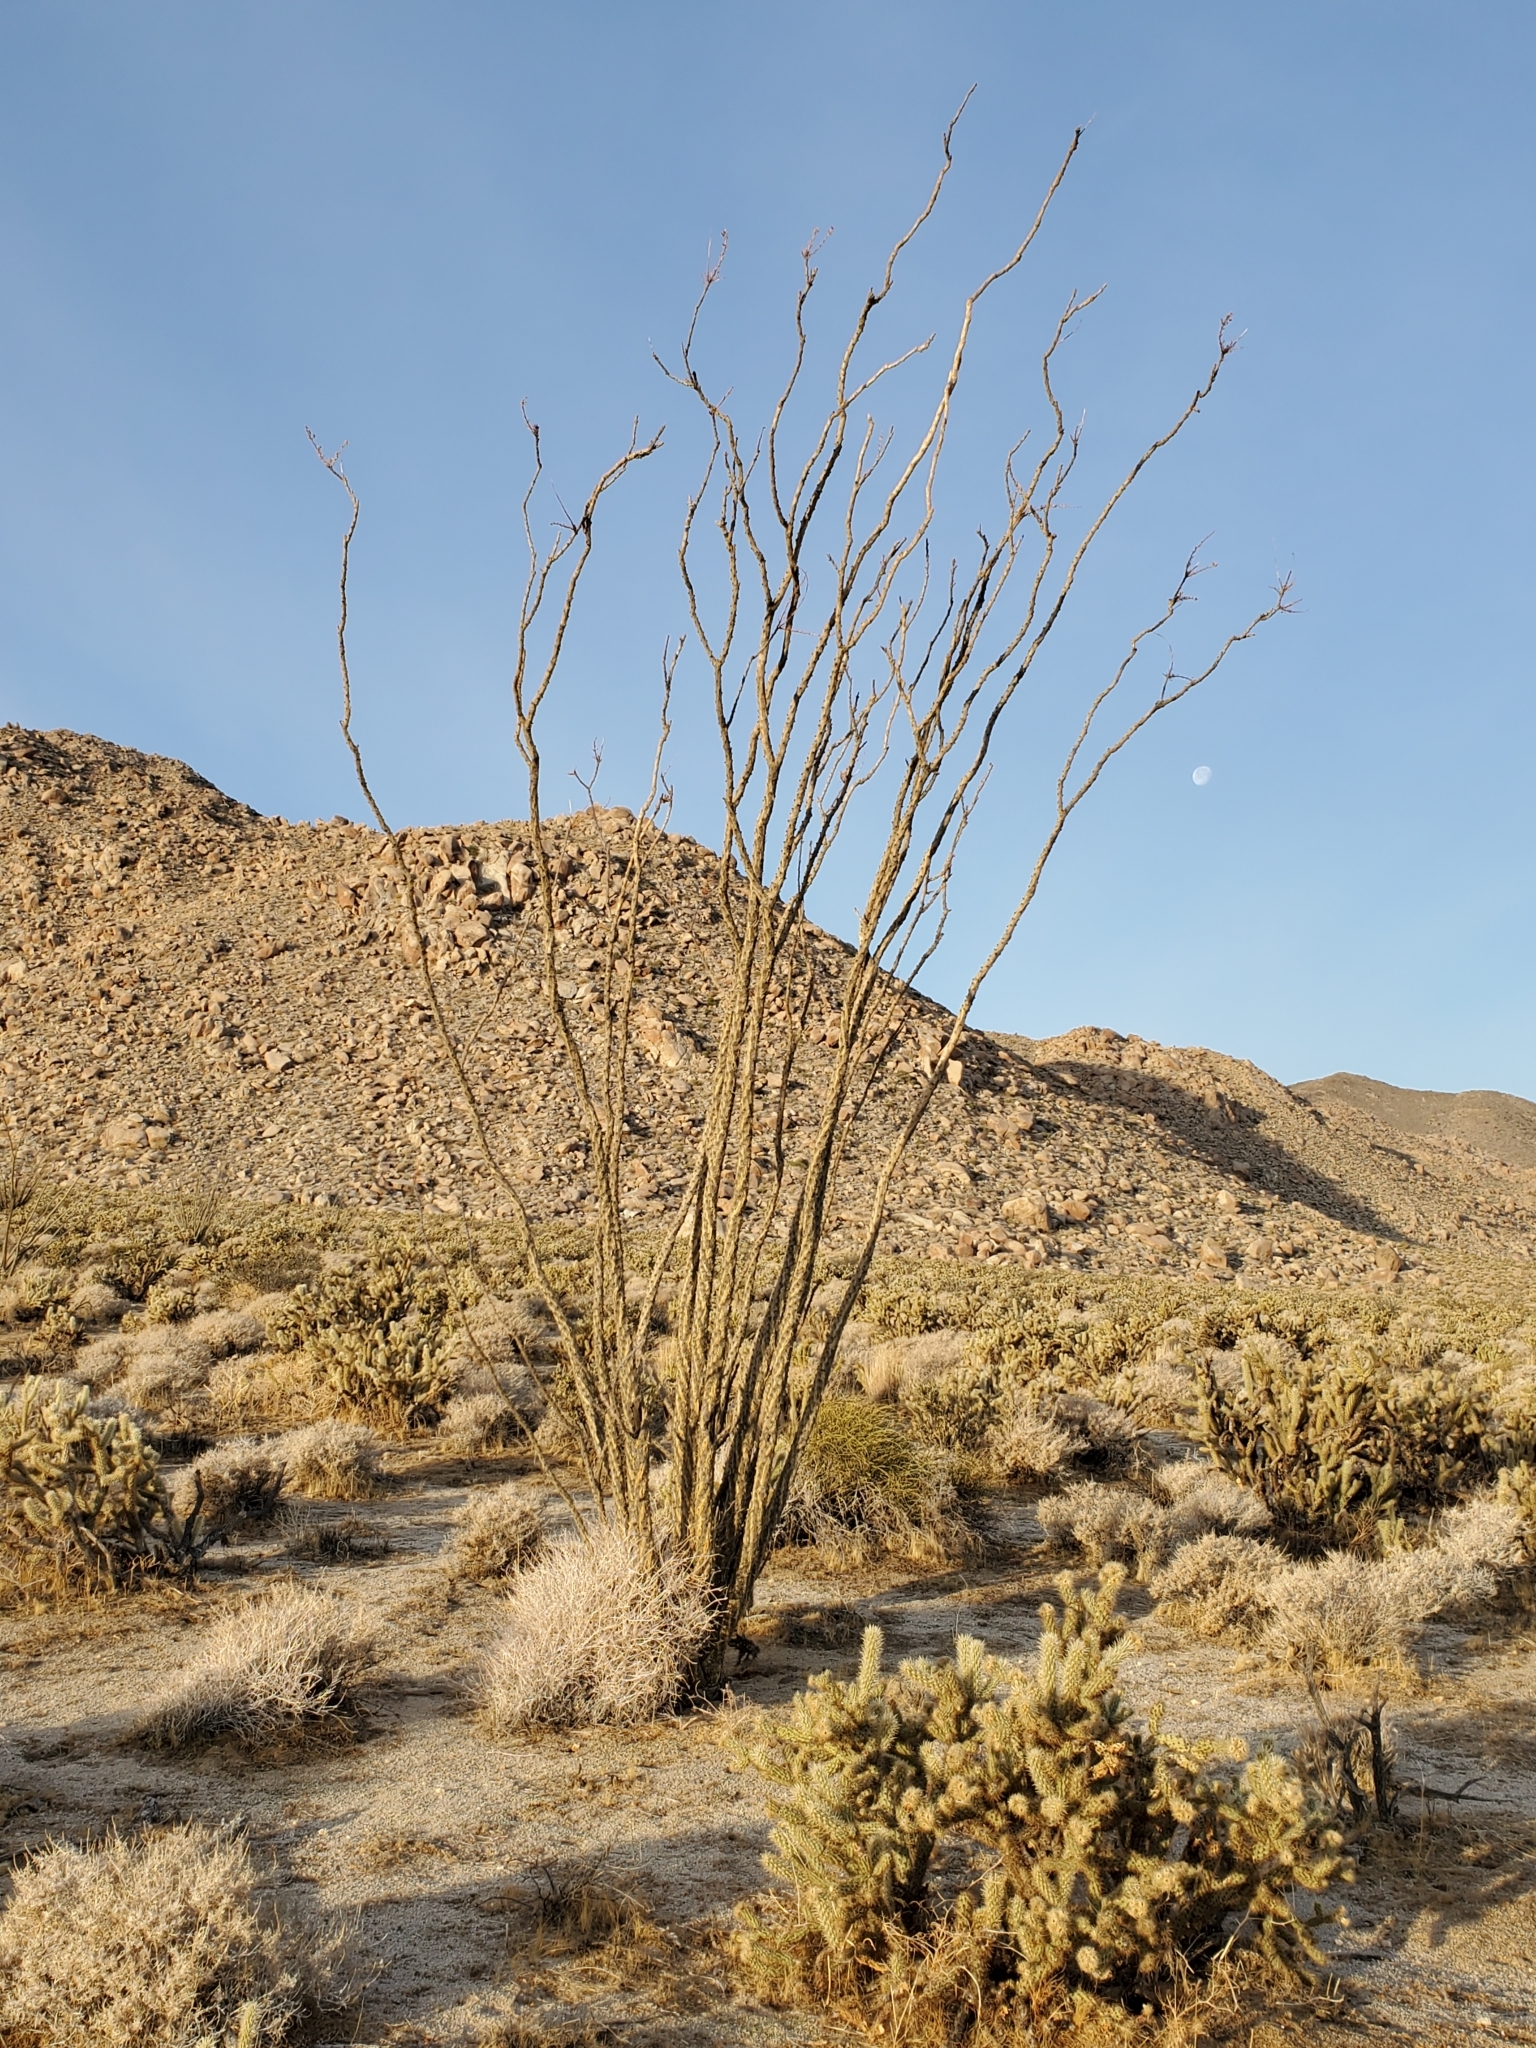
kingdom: Plantae
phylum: Tracheophyta
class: Magnoliopsida
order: Ericales
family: Fouquieriaceae
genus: Fouquieria
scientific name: Fouquieria splendens
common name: Vine-cactus
